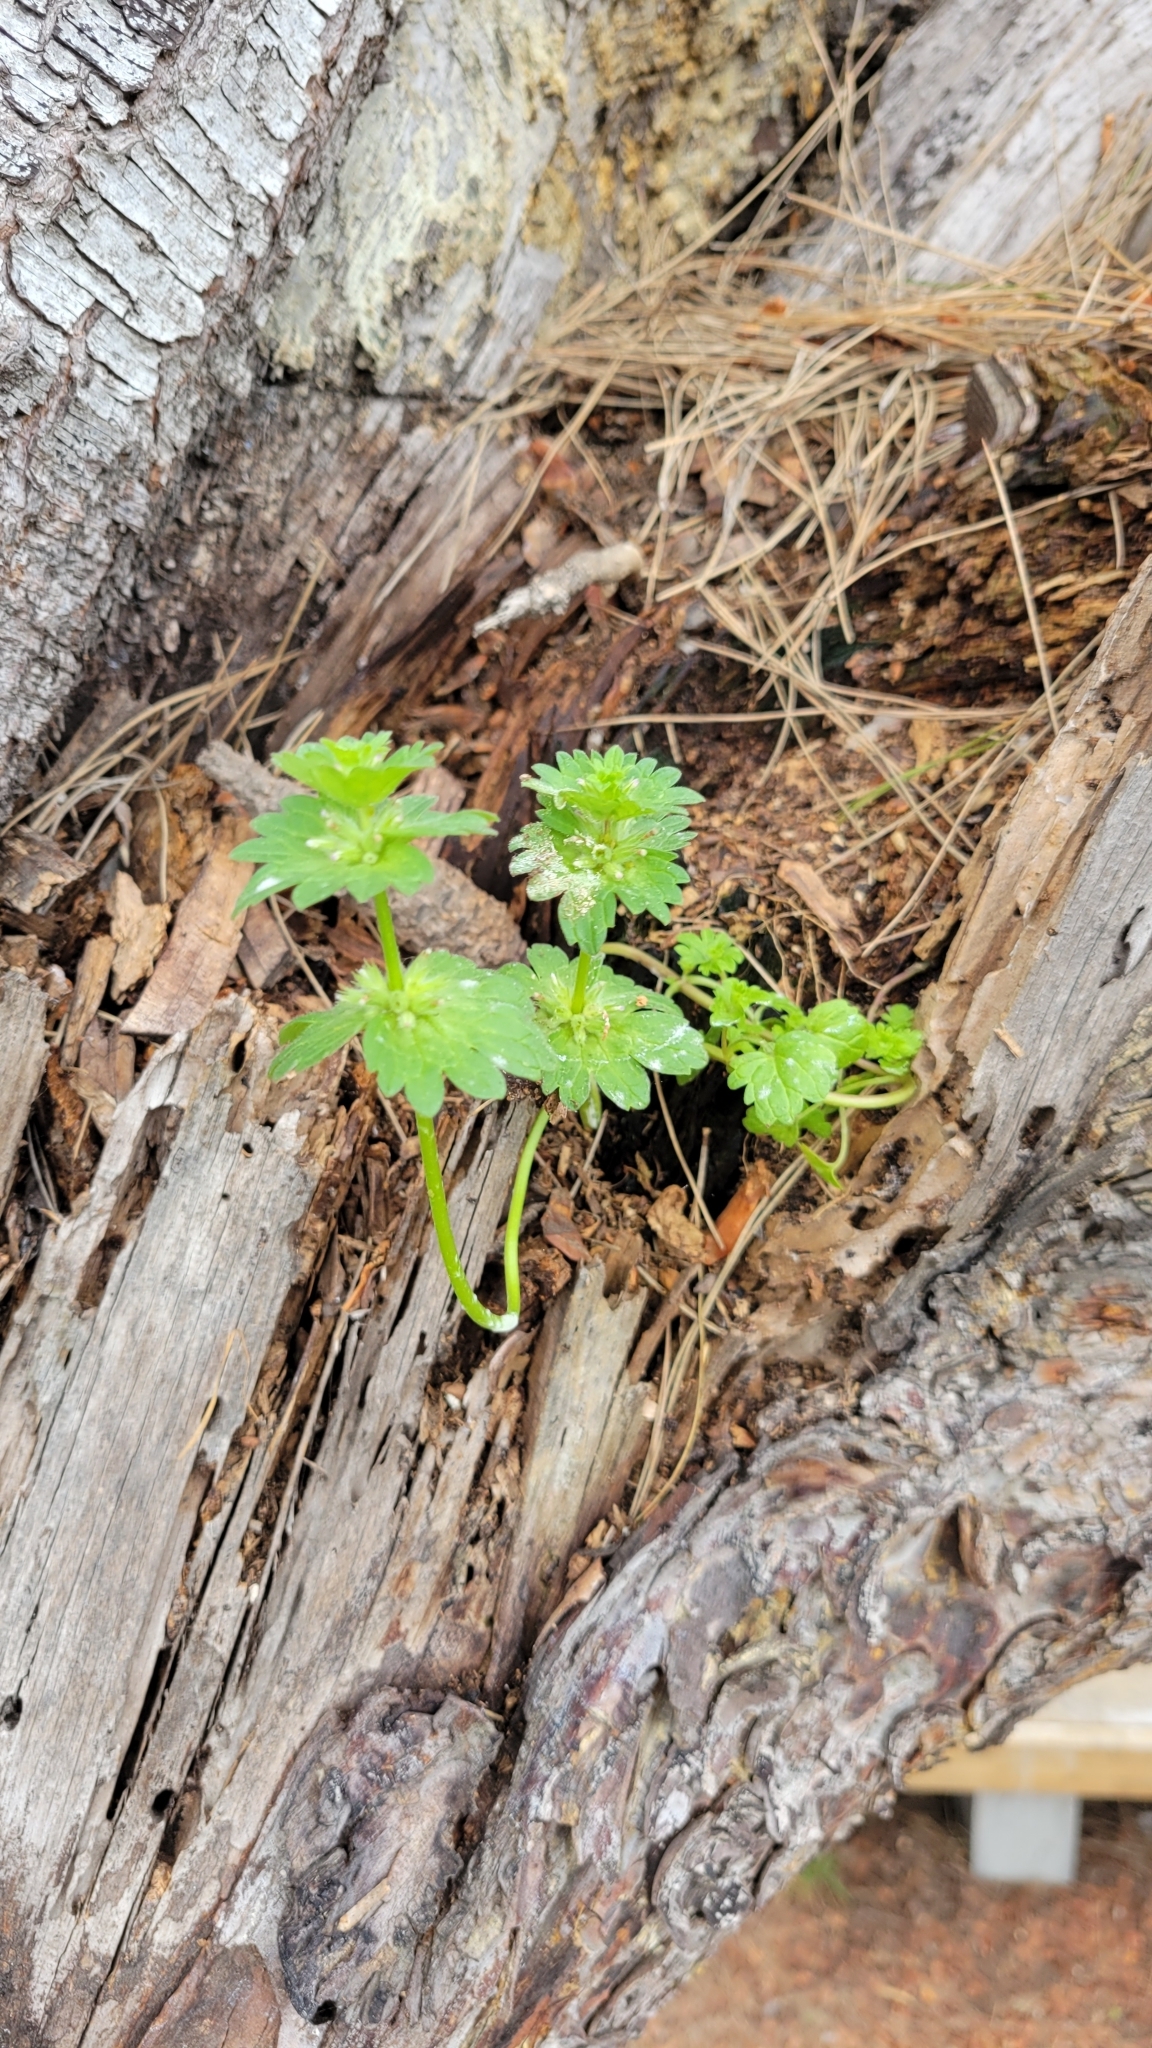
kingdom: Plantae
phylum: Tracheophyta
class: Magnoliopsida
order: Lamiales
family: Lamiaceae
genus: Lamium
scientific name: Lamium amplexicaule
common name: Henbit dead-nettle
